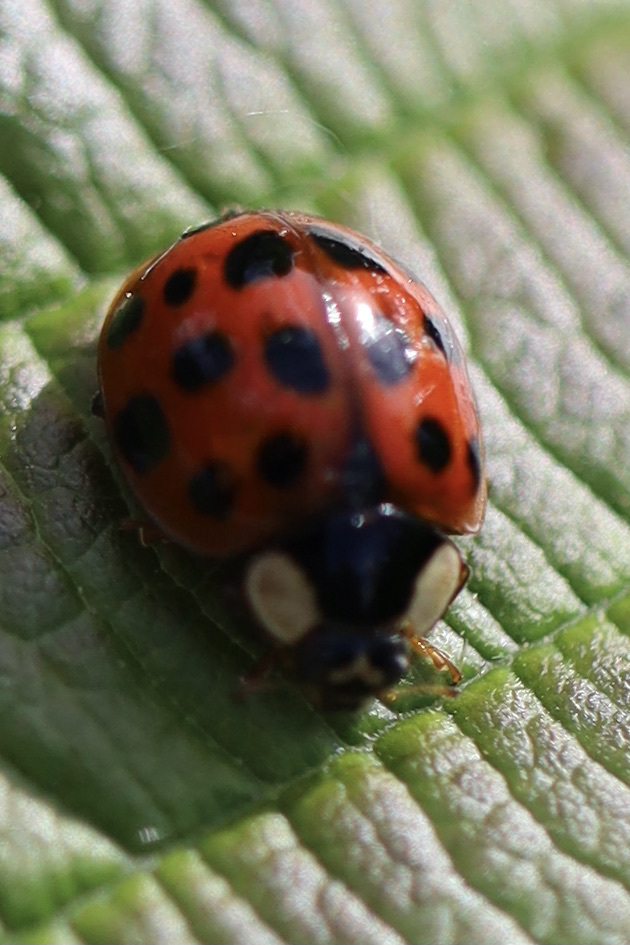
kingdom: Animalia
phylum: Arthropoda
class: Insecta
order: Coleoptera
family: Coccinellidae
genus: Harmonia
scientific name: Harmonia axyridis
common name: Harlequin ladybird
